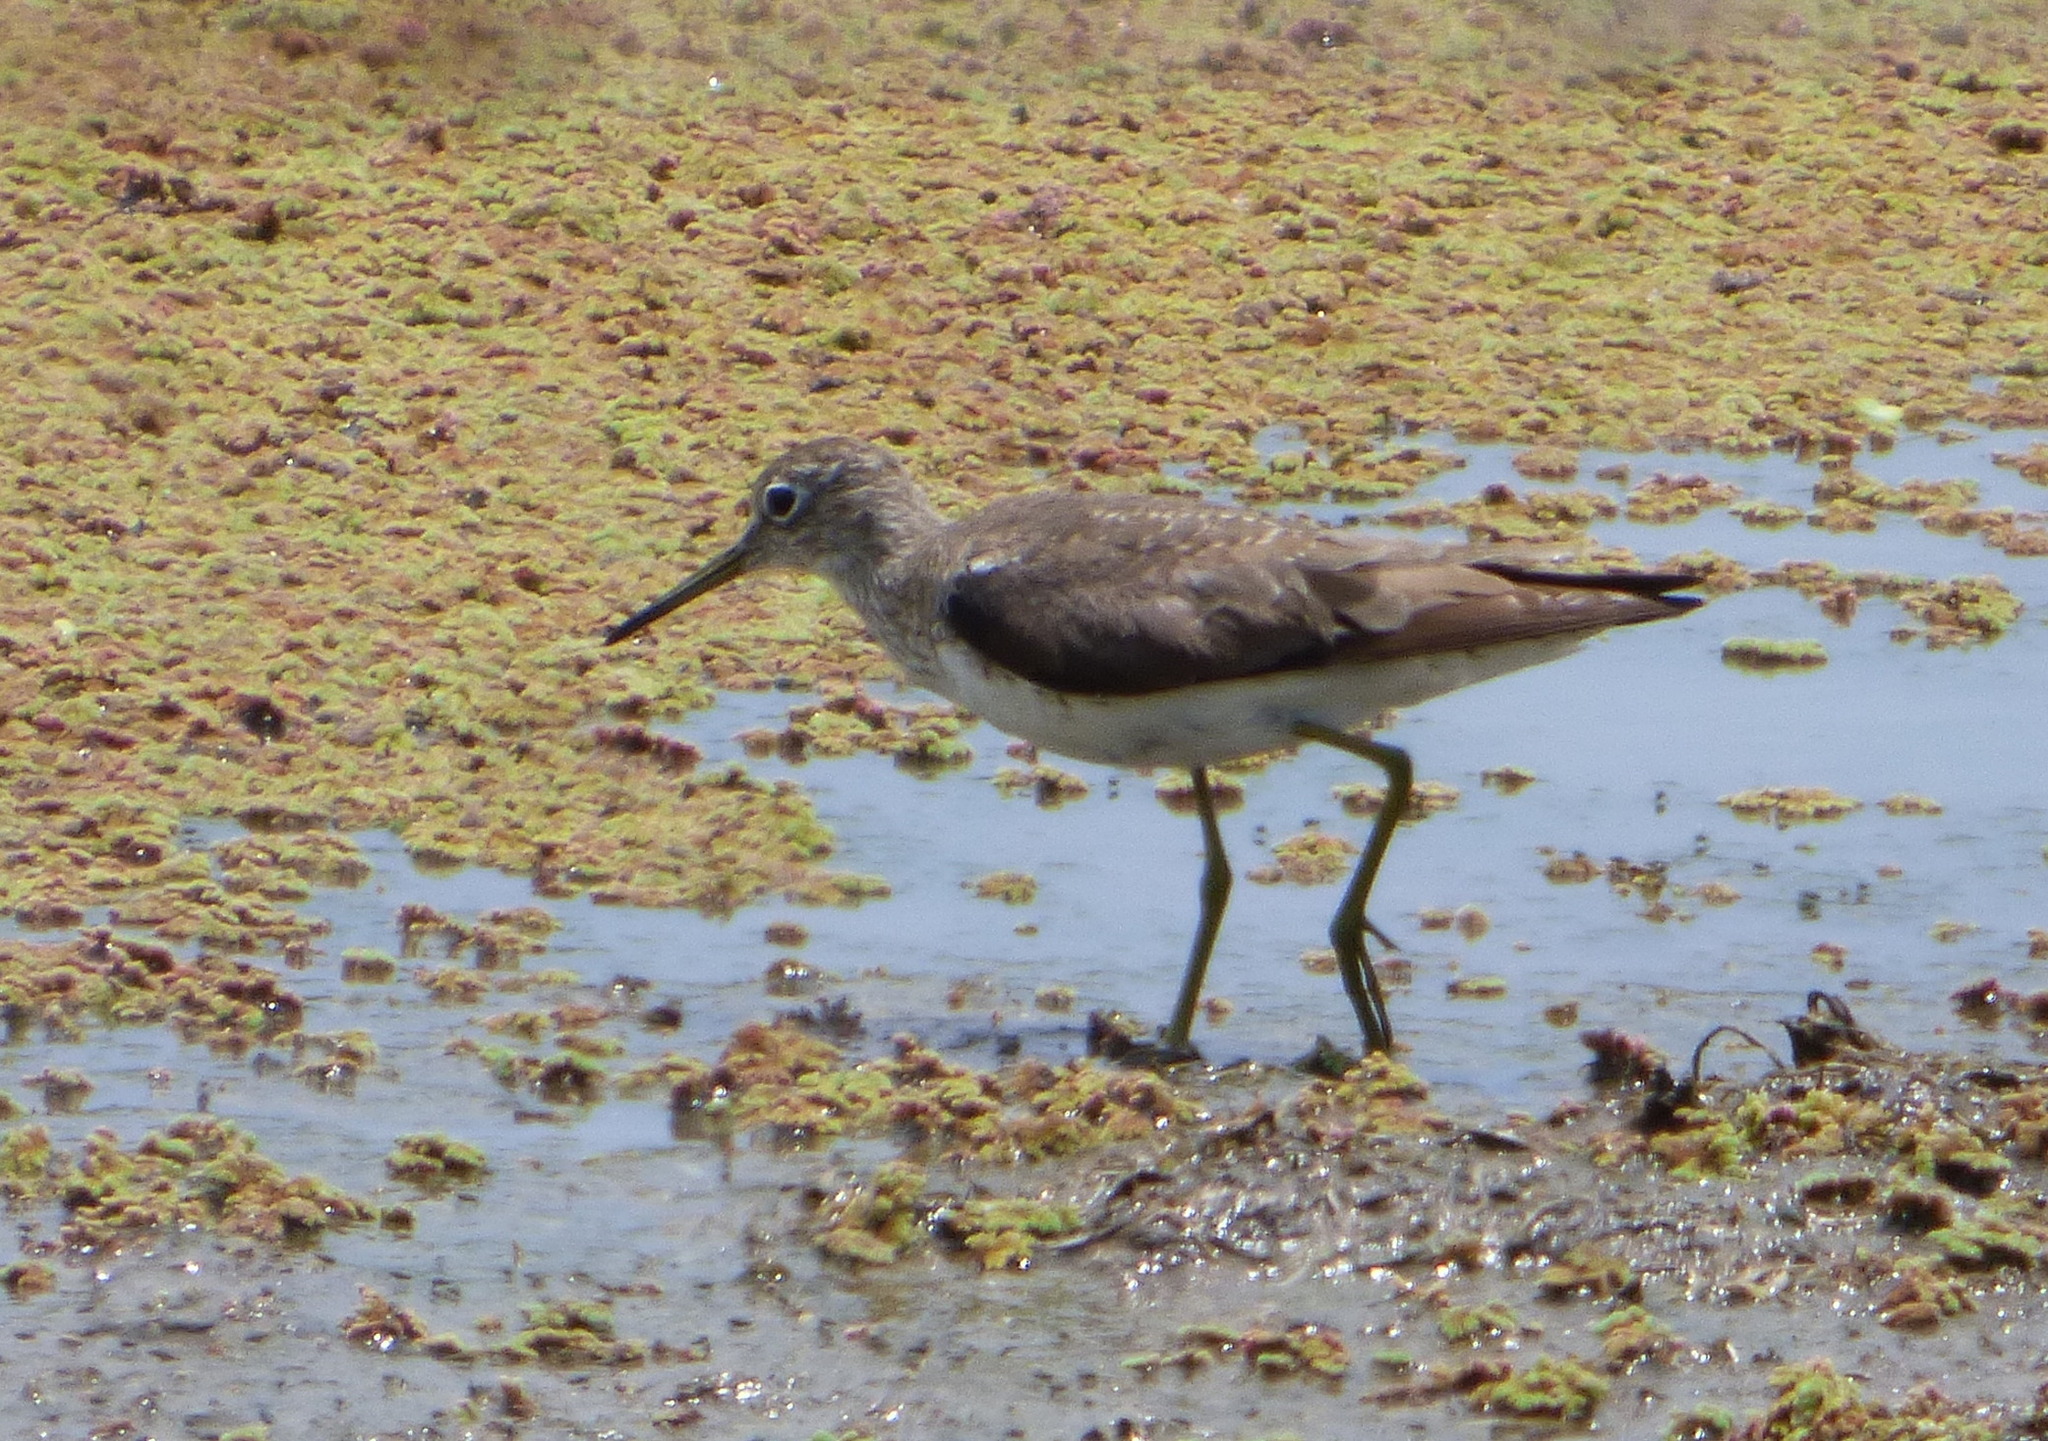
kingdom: Animalia
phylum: Chordata
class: Aves
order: Charadriiformes
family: Scolopacidae
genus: Tringa
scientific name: Tringa solitaria
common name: Solitary sandpiper
